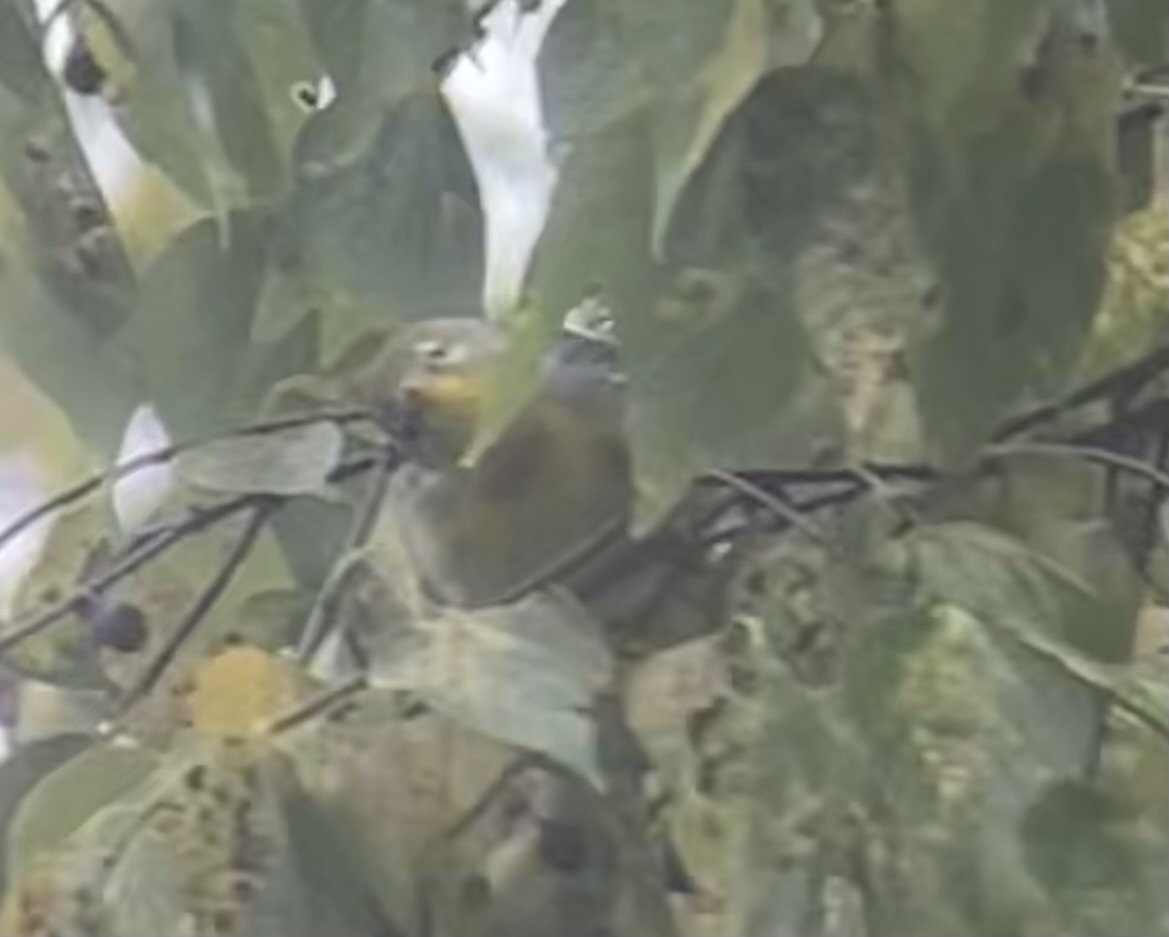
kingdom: Animalia
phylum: Chordata
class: Aves
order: Passeriformes
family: Parulidae
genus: Setophaga
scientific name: Setophaga americana
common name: Northern parula
